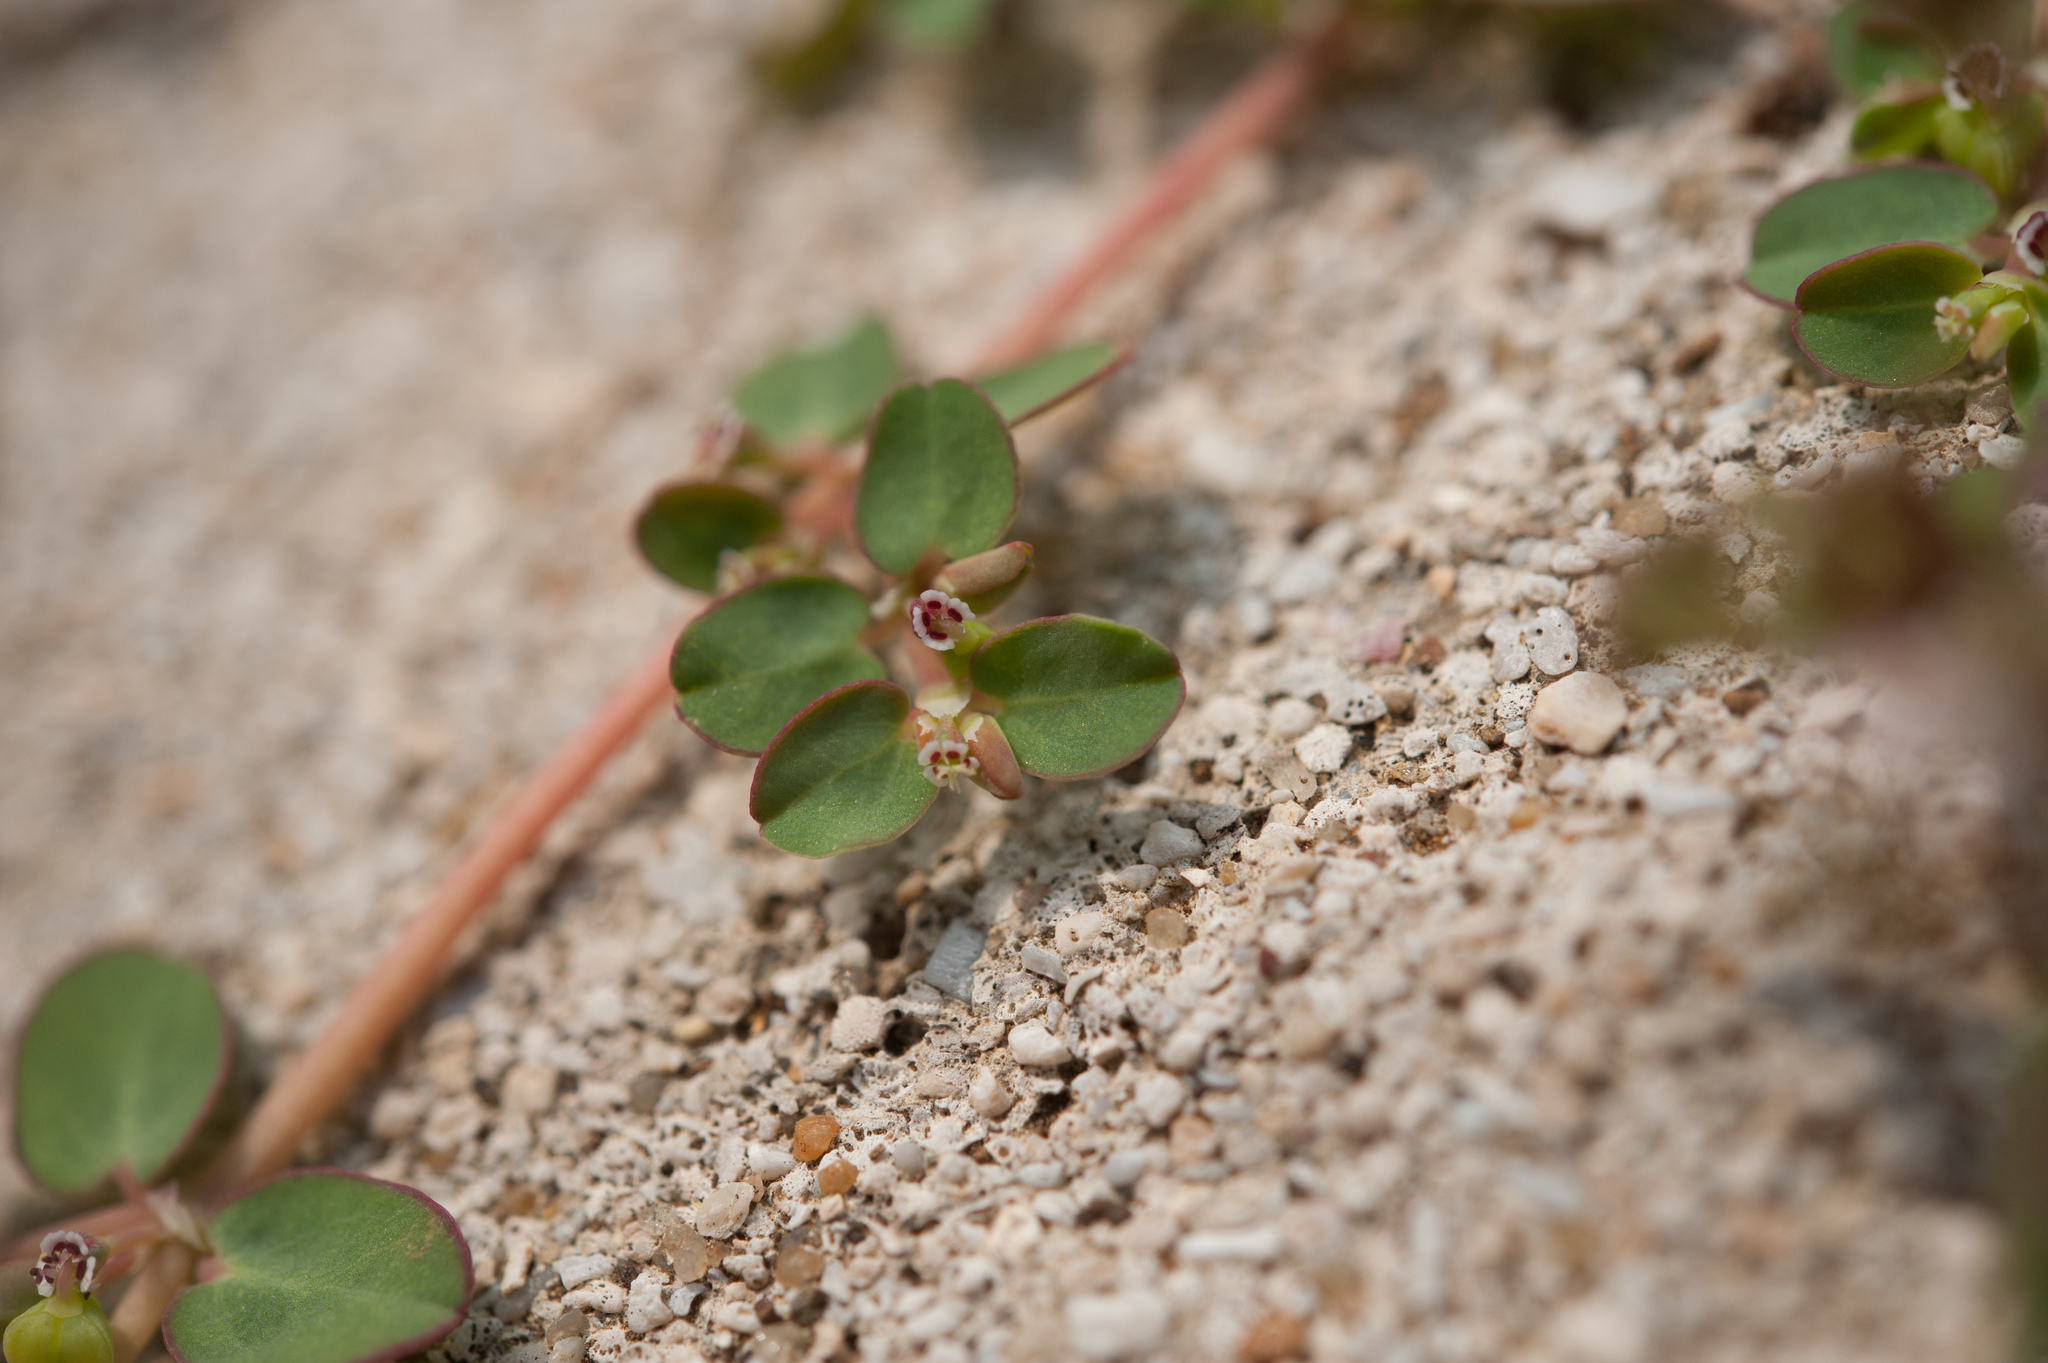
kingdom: Plantae
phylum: Tracheophyta
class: Magnoliopsida
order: Malpighiales
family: Euphorbiaceae
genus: Euphorbia
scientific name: Euphorbia serpens
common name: Matted sandmat
